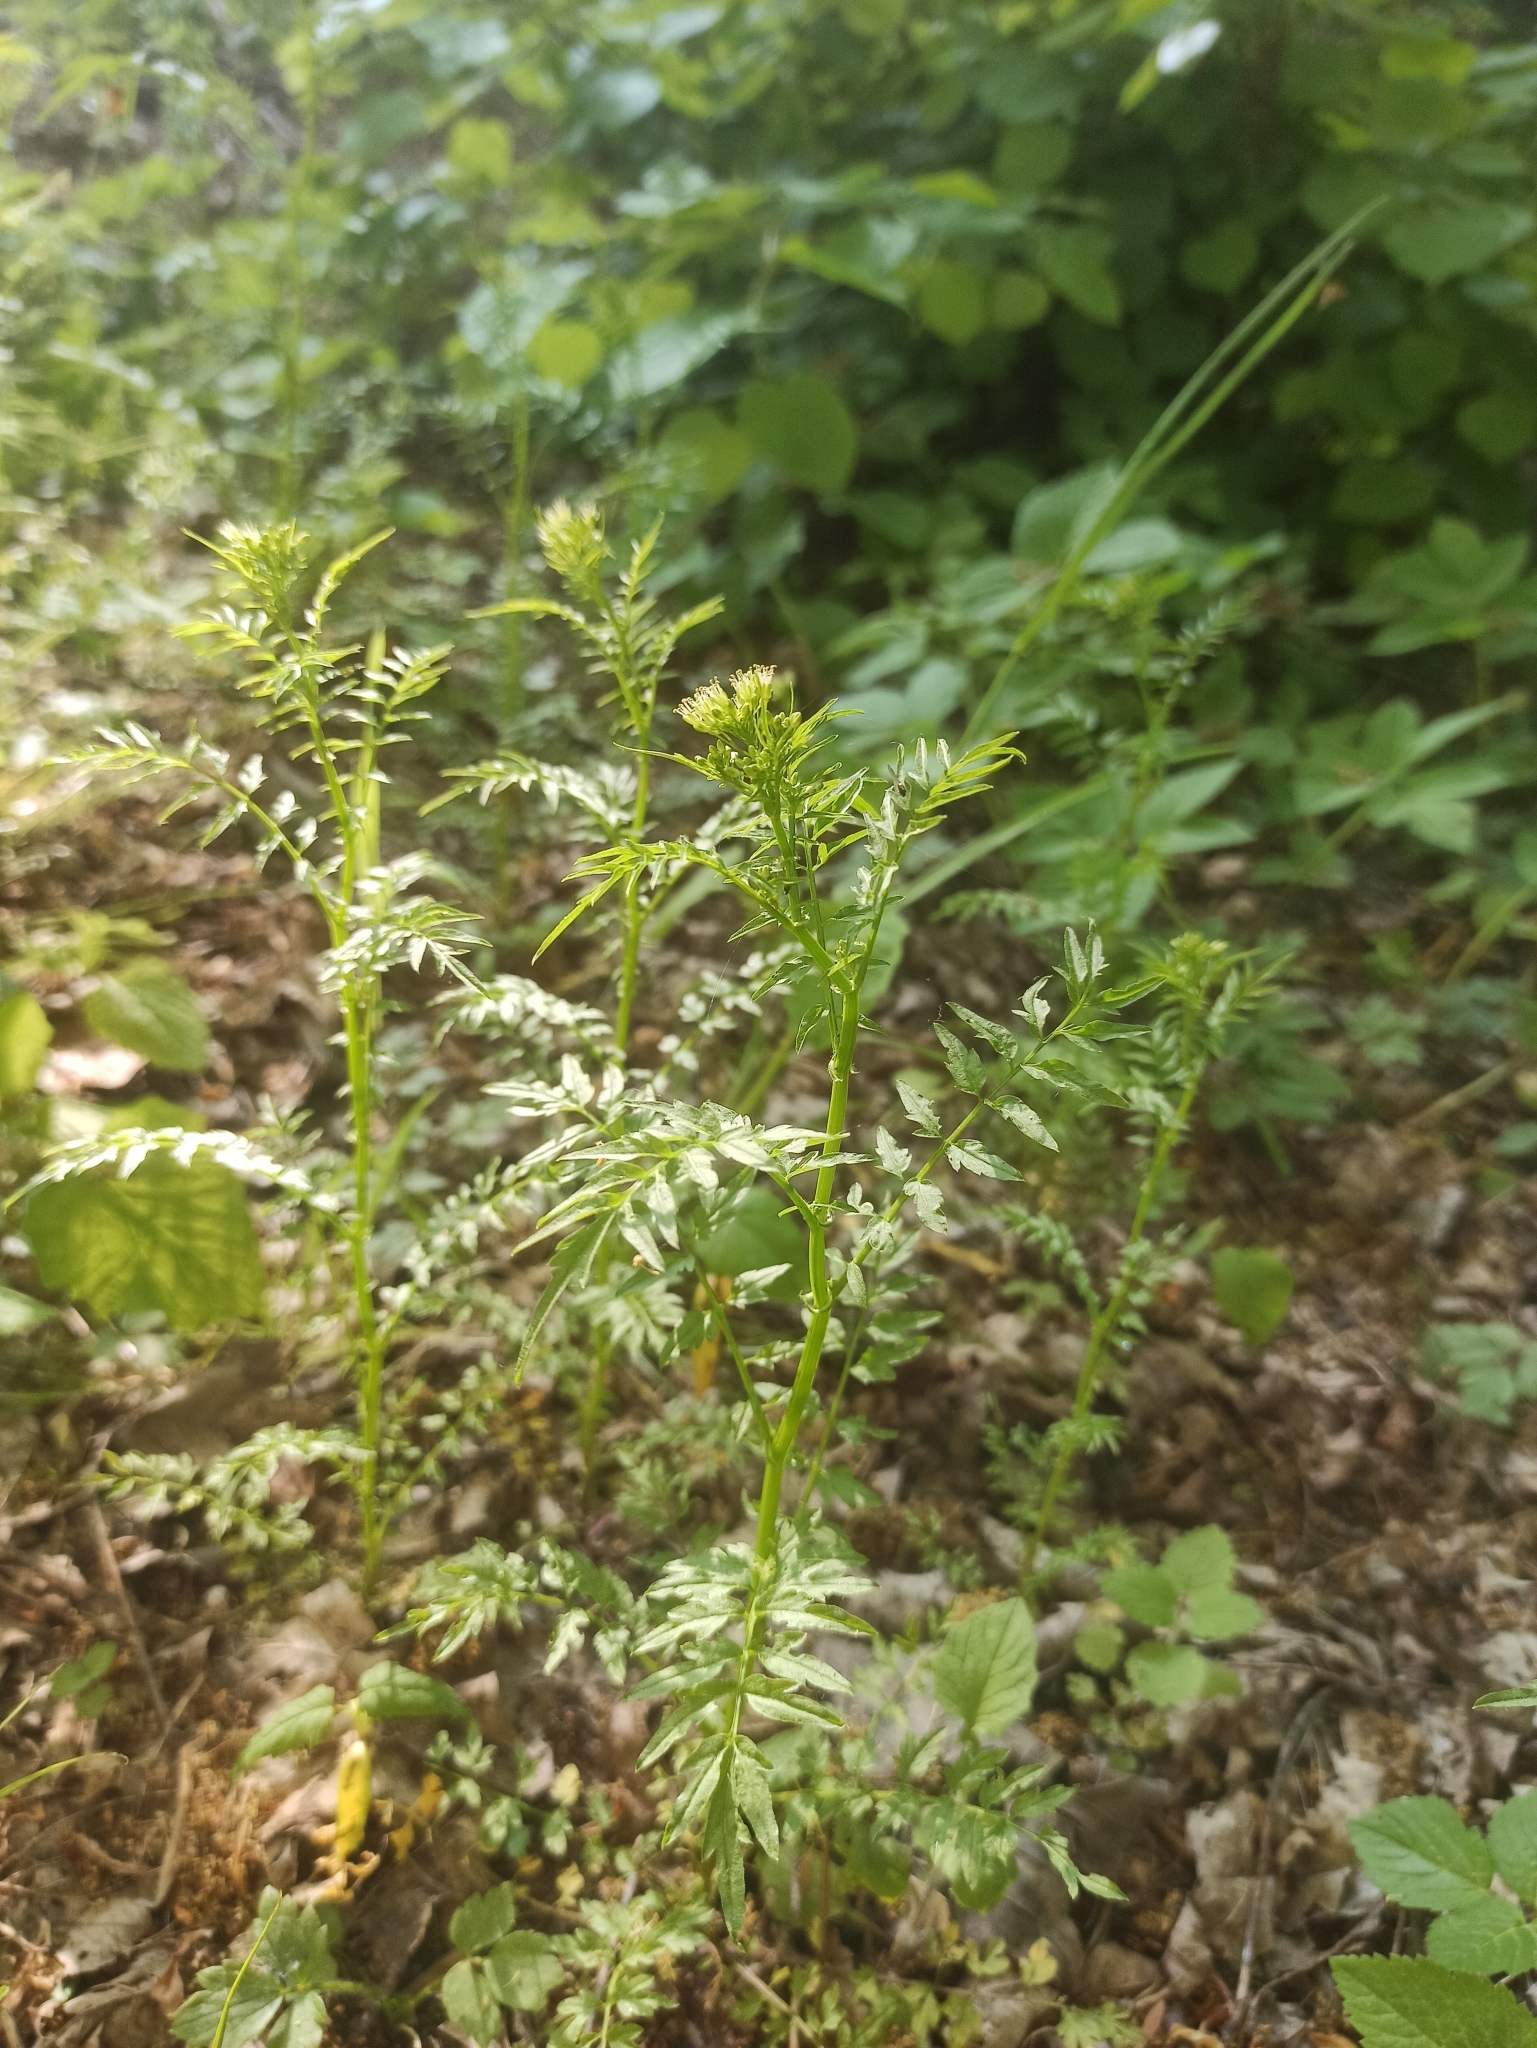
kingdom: Plantae
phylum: Tracheophyta
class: Magnoliopsida
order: Brassicales
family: Brassicaceae
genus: Cardamine
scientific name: Cardamine impatiens
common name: Narrow-leaved bitter-cress
